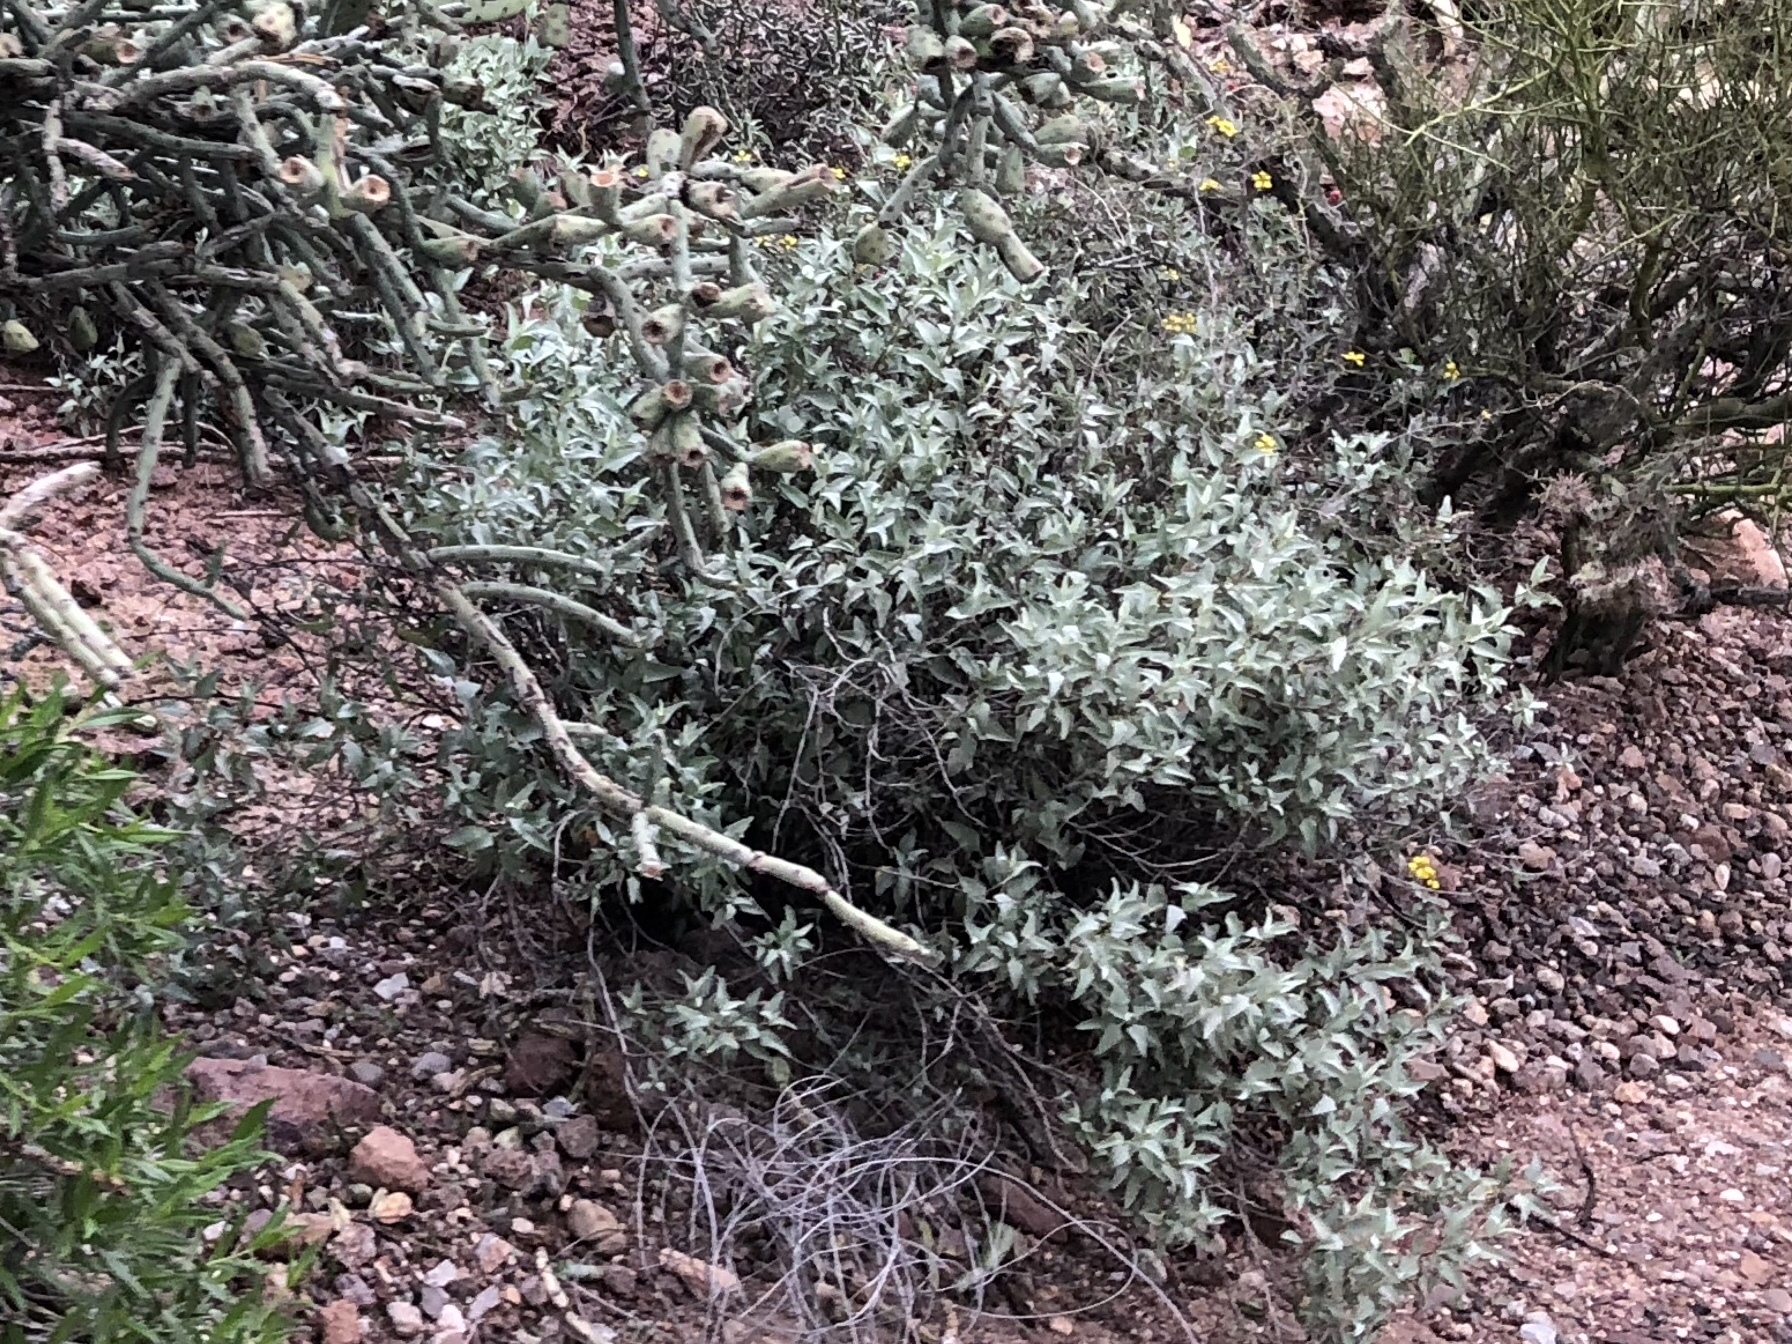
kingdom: Plantae
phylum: Tracheophyta
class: Magnoliopsida
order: Asterales
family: Asteraceae
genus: Ambrosia
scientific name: Ambrosia deltoidea
